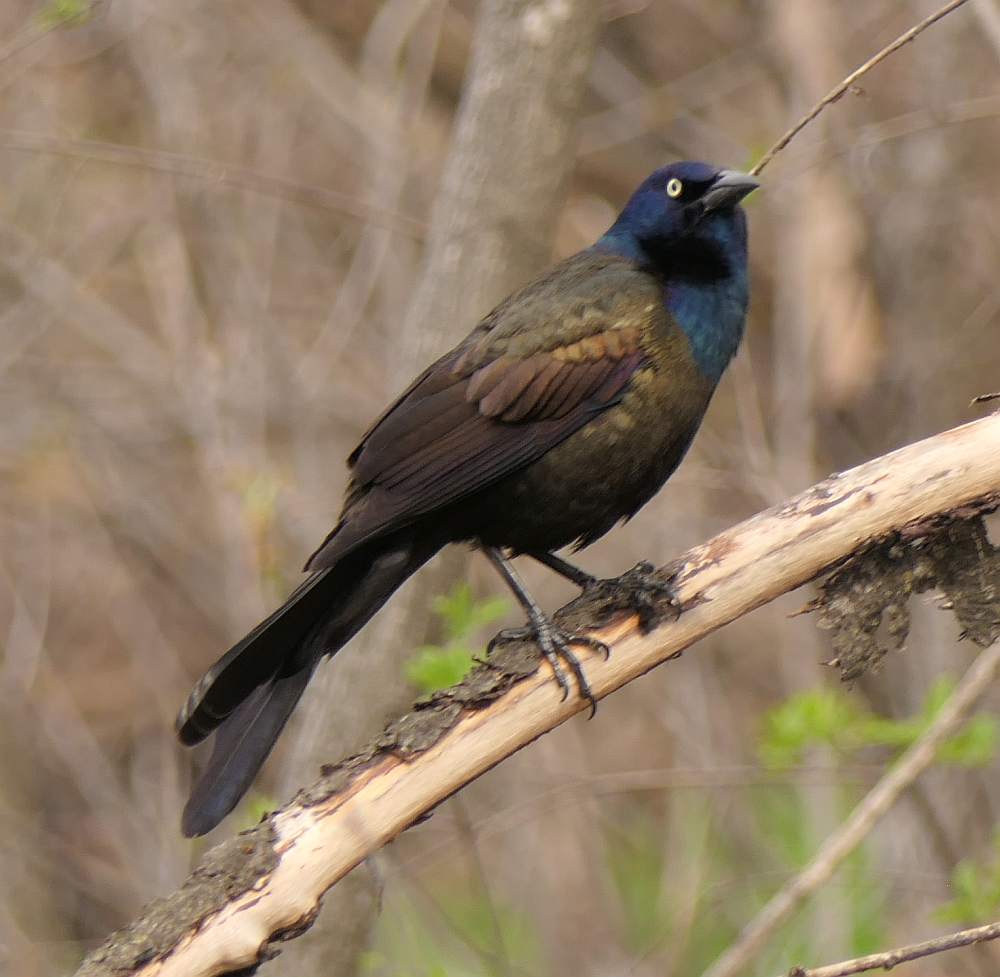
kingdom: Animalia
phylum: Chordata
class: Aves
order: Passeriformes
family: Icteridae
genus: Quiscalus
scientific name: Quiscalus quiscula
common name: Common grackle
